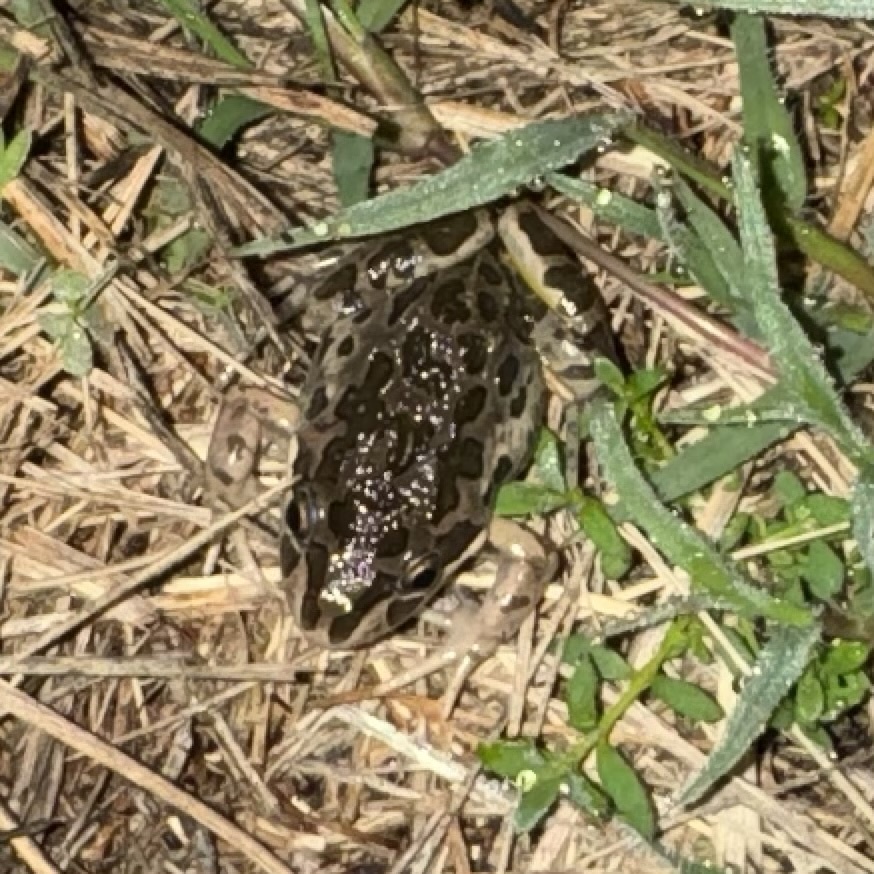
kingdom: Animalia
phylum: Chordata
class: Amphibia
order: Anura
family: Limnodynastidae
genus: Limnodynastes
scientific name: Limnodynastes tasmaniensis
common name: Spotted marsh frog
